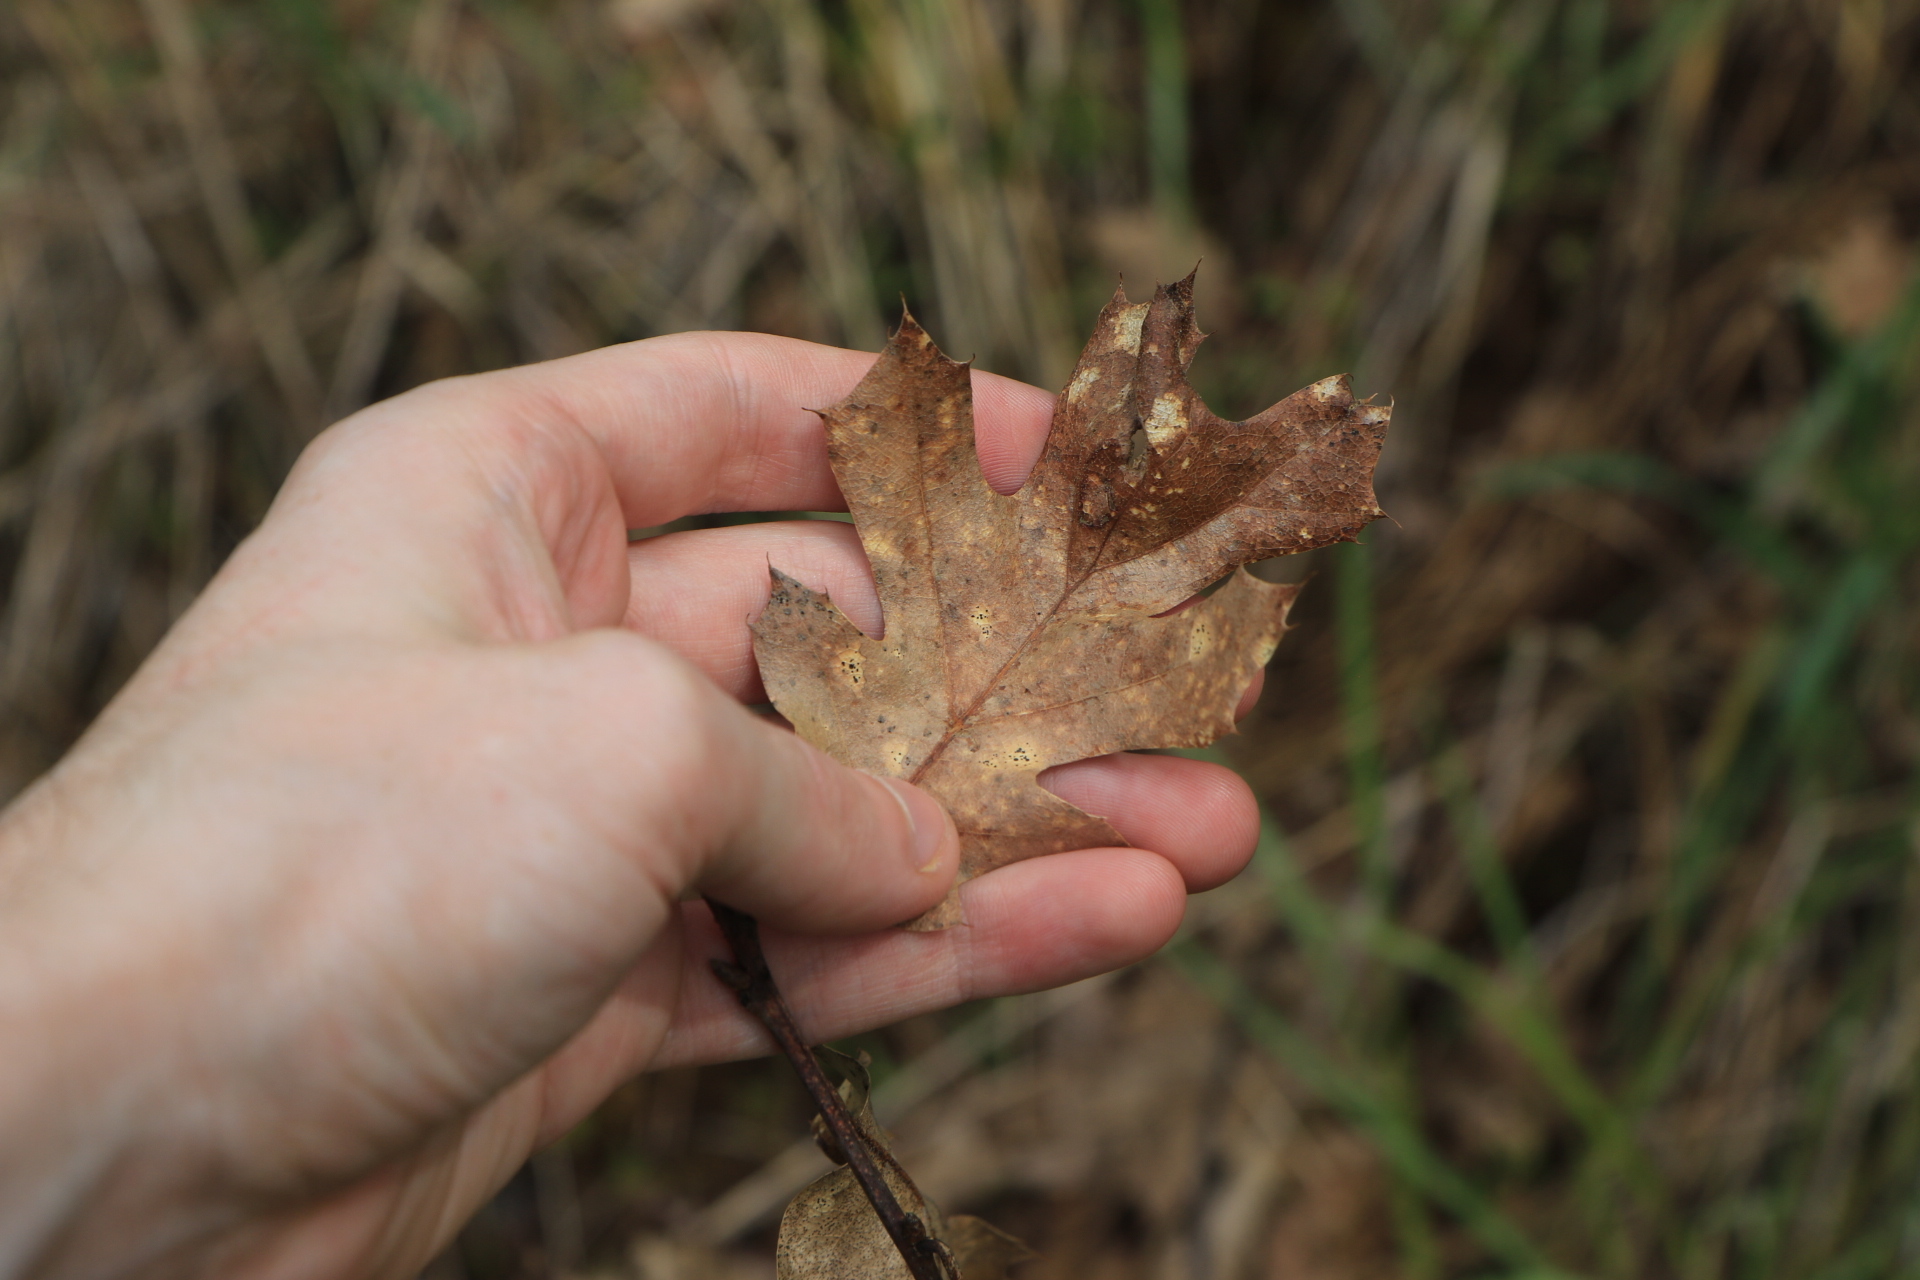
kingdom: Plantae
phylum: Tracheophyta
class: Magnoliopsida
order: Fagales
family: Fagaceae
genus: Quercus
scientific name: Quercus kelloggii
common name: California black oak
